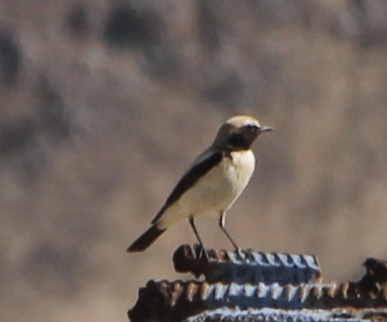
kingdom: Animalia
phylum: Chordata
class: Aves
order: Passeriformes
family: Muscicapidae
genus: Oenanthe
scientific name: Oenanthe deserti
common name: Desert wheatear
